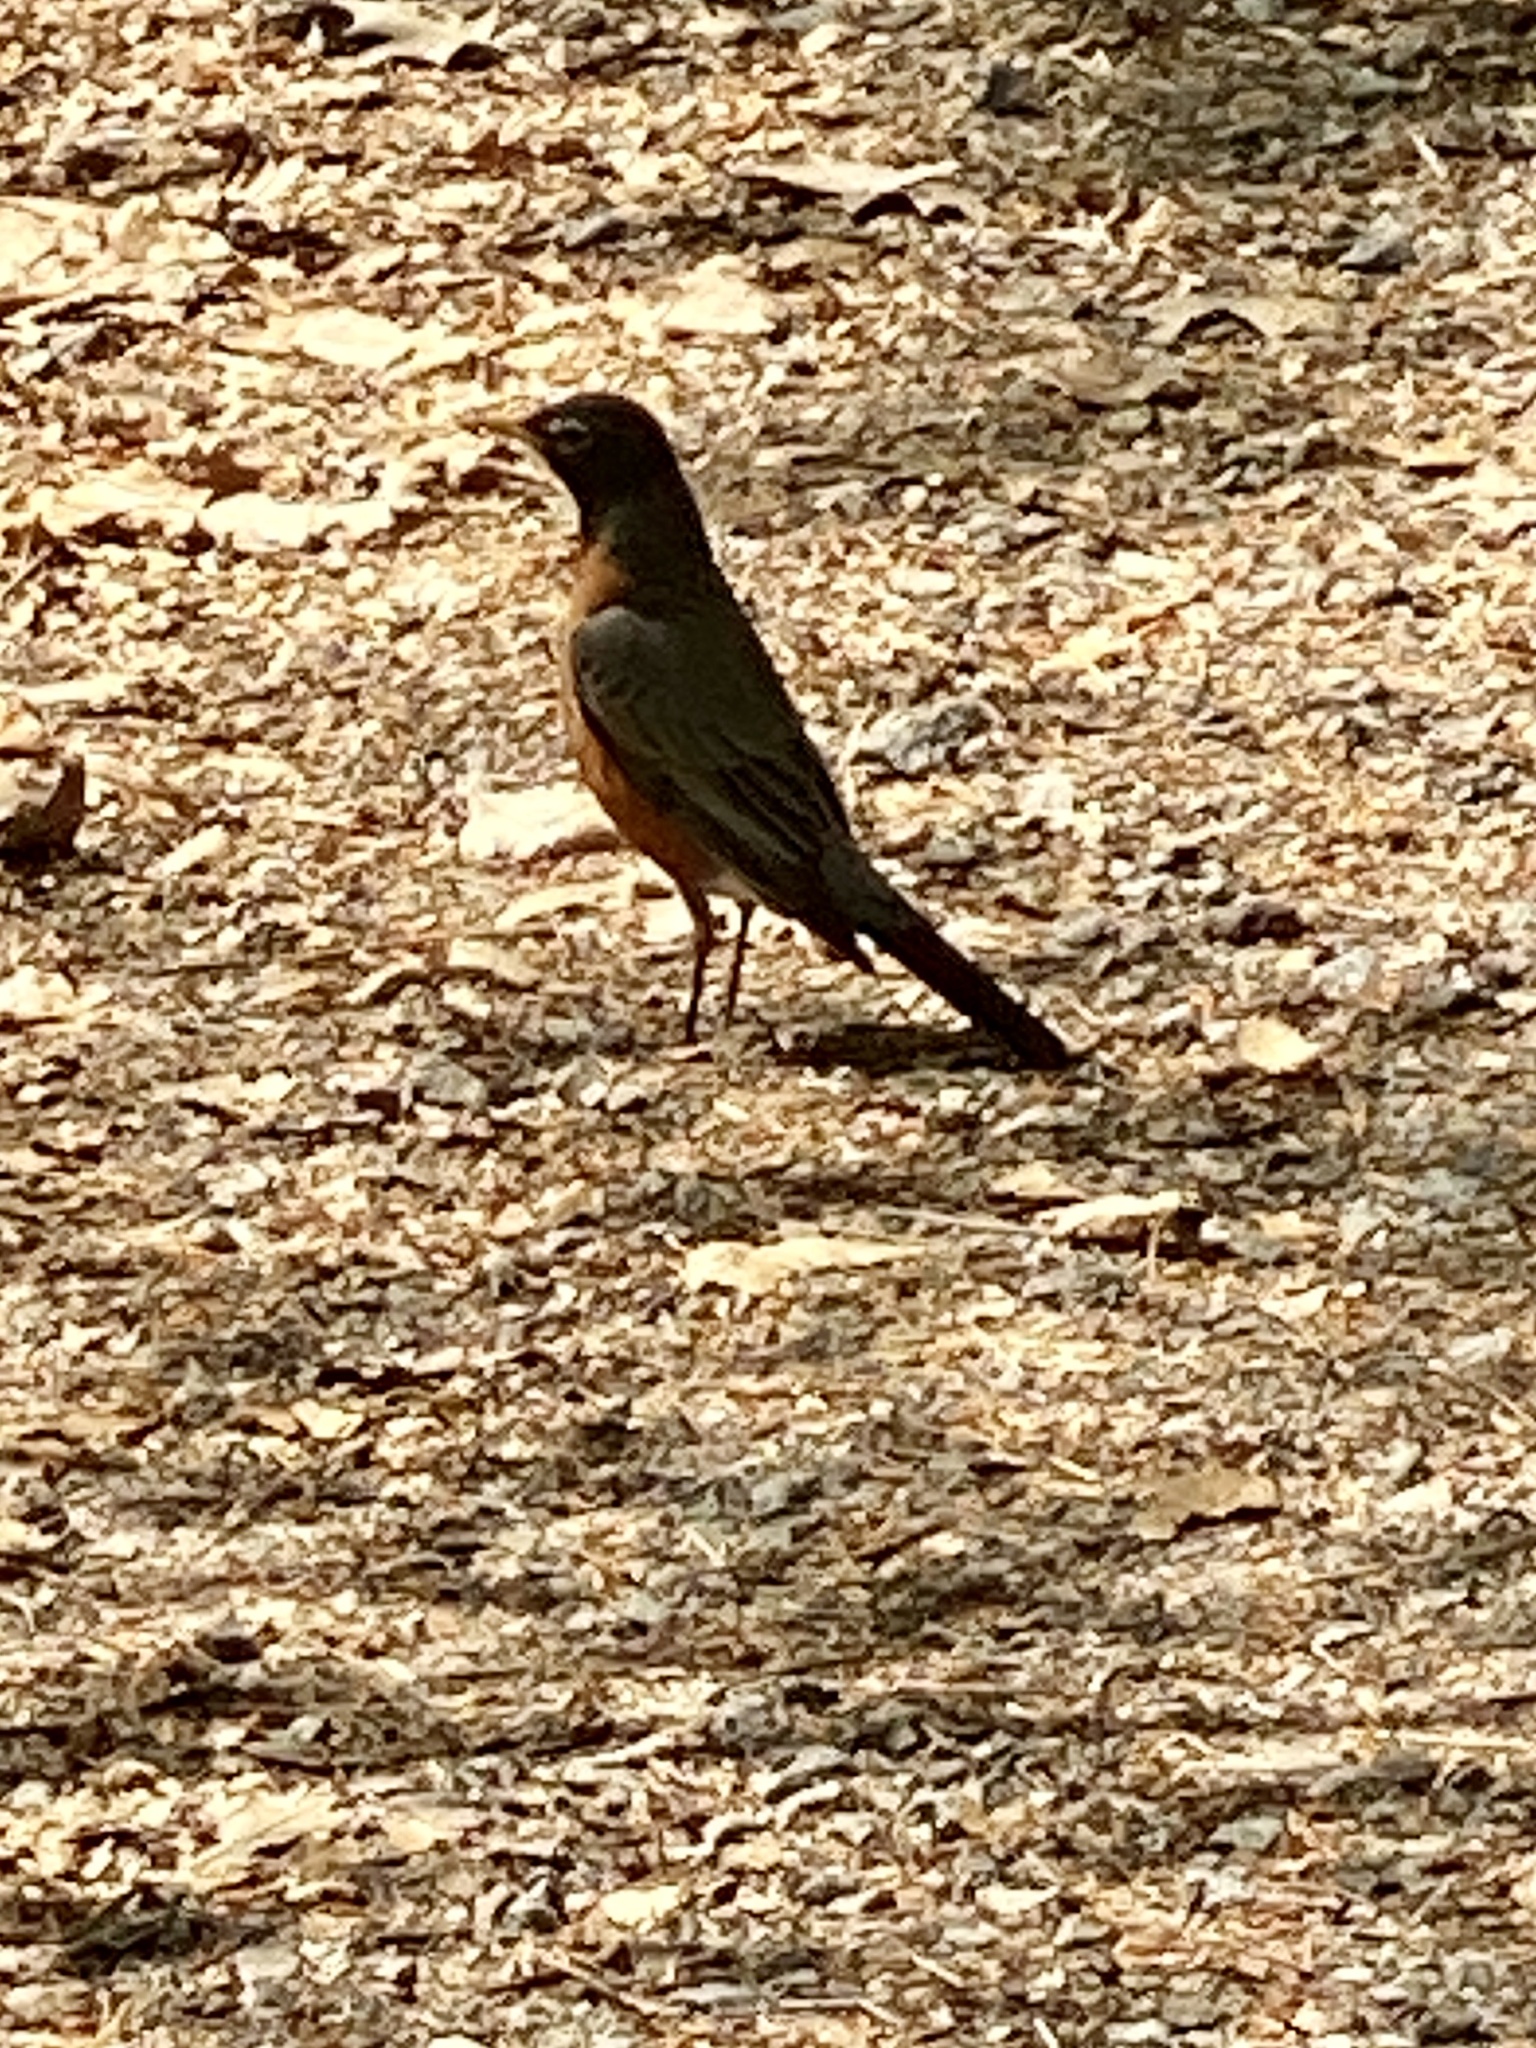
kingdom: Animalia
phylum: Chordata
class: Aves
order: Passeriformes
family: Turdidae
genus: Turdus
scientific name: Turdus migratorius
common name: American robin
